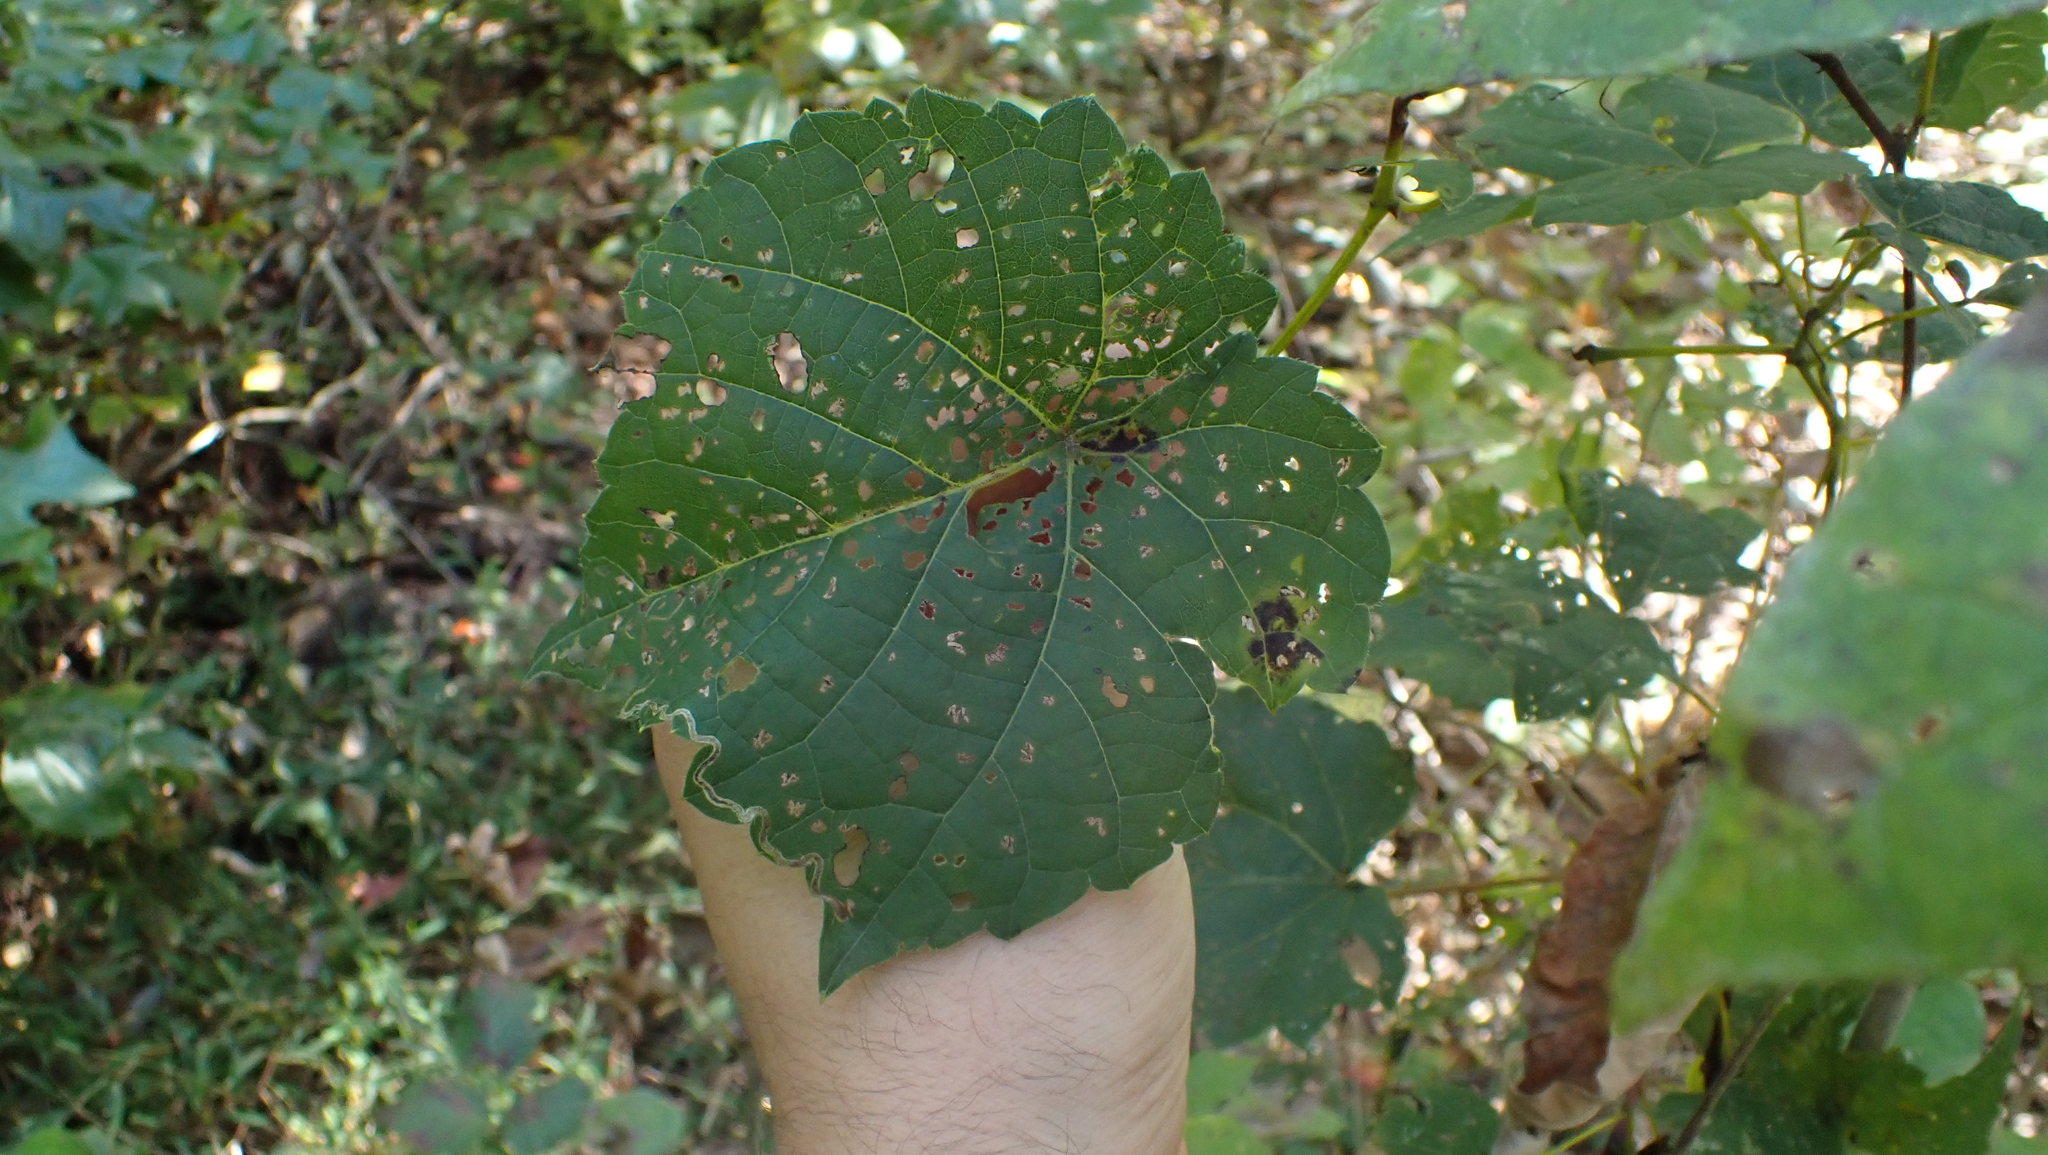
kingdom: Animalia
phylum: Arthropoda
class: Insecta
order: Diptera
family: Cecidomyiidae
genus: Neolasioptera
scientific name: Neolasioptera vitinea
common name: Grape leaf petiole gall
